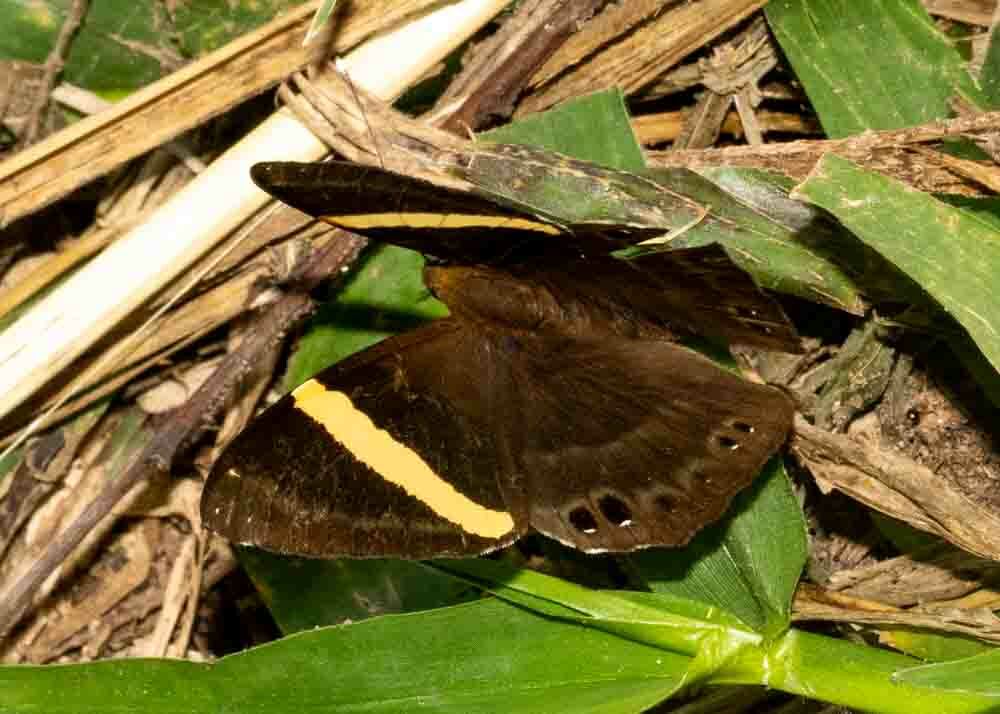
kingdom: Animalia
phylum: Arthropoda
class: Insecta
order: Lepidoptera
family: Lycaenidae
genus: Abisara
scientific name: Abisara fylla
